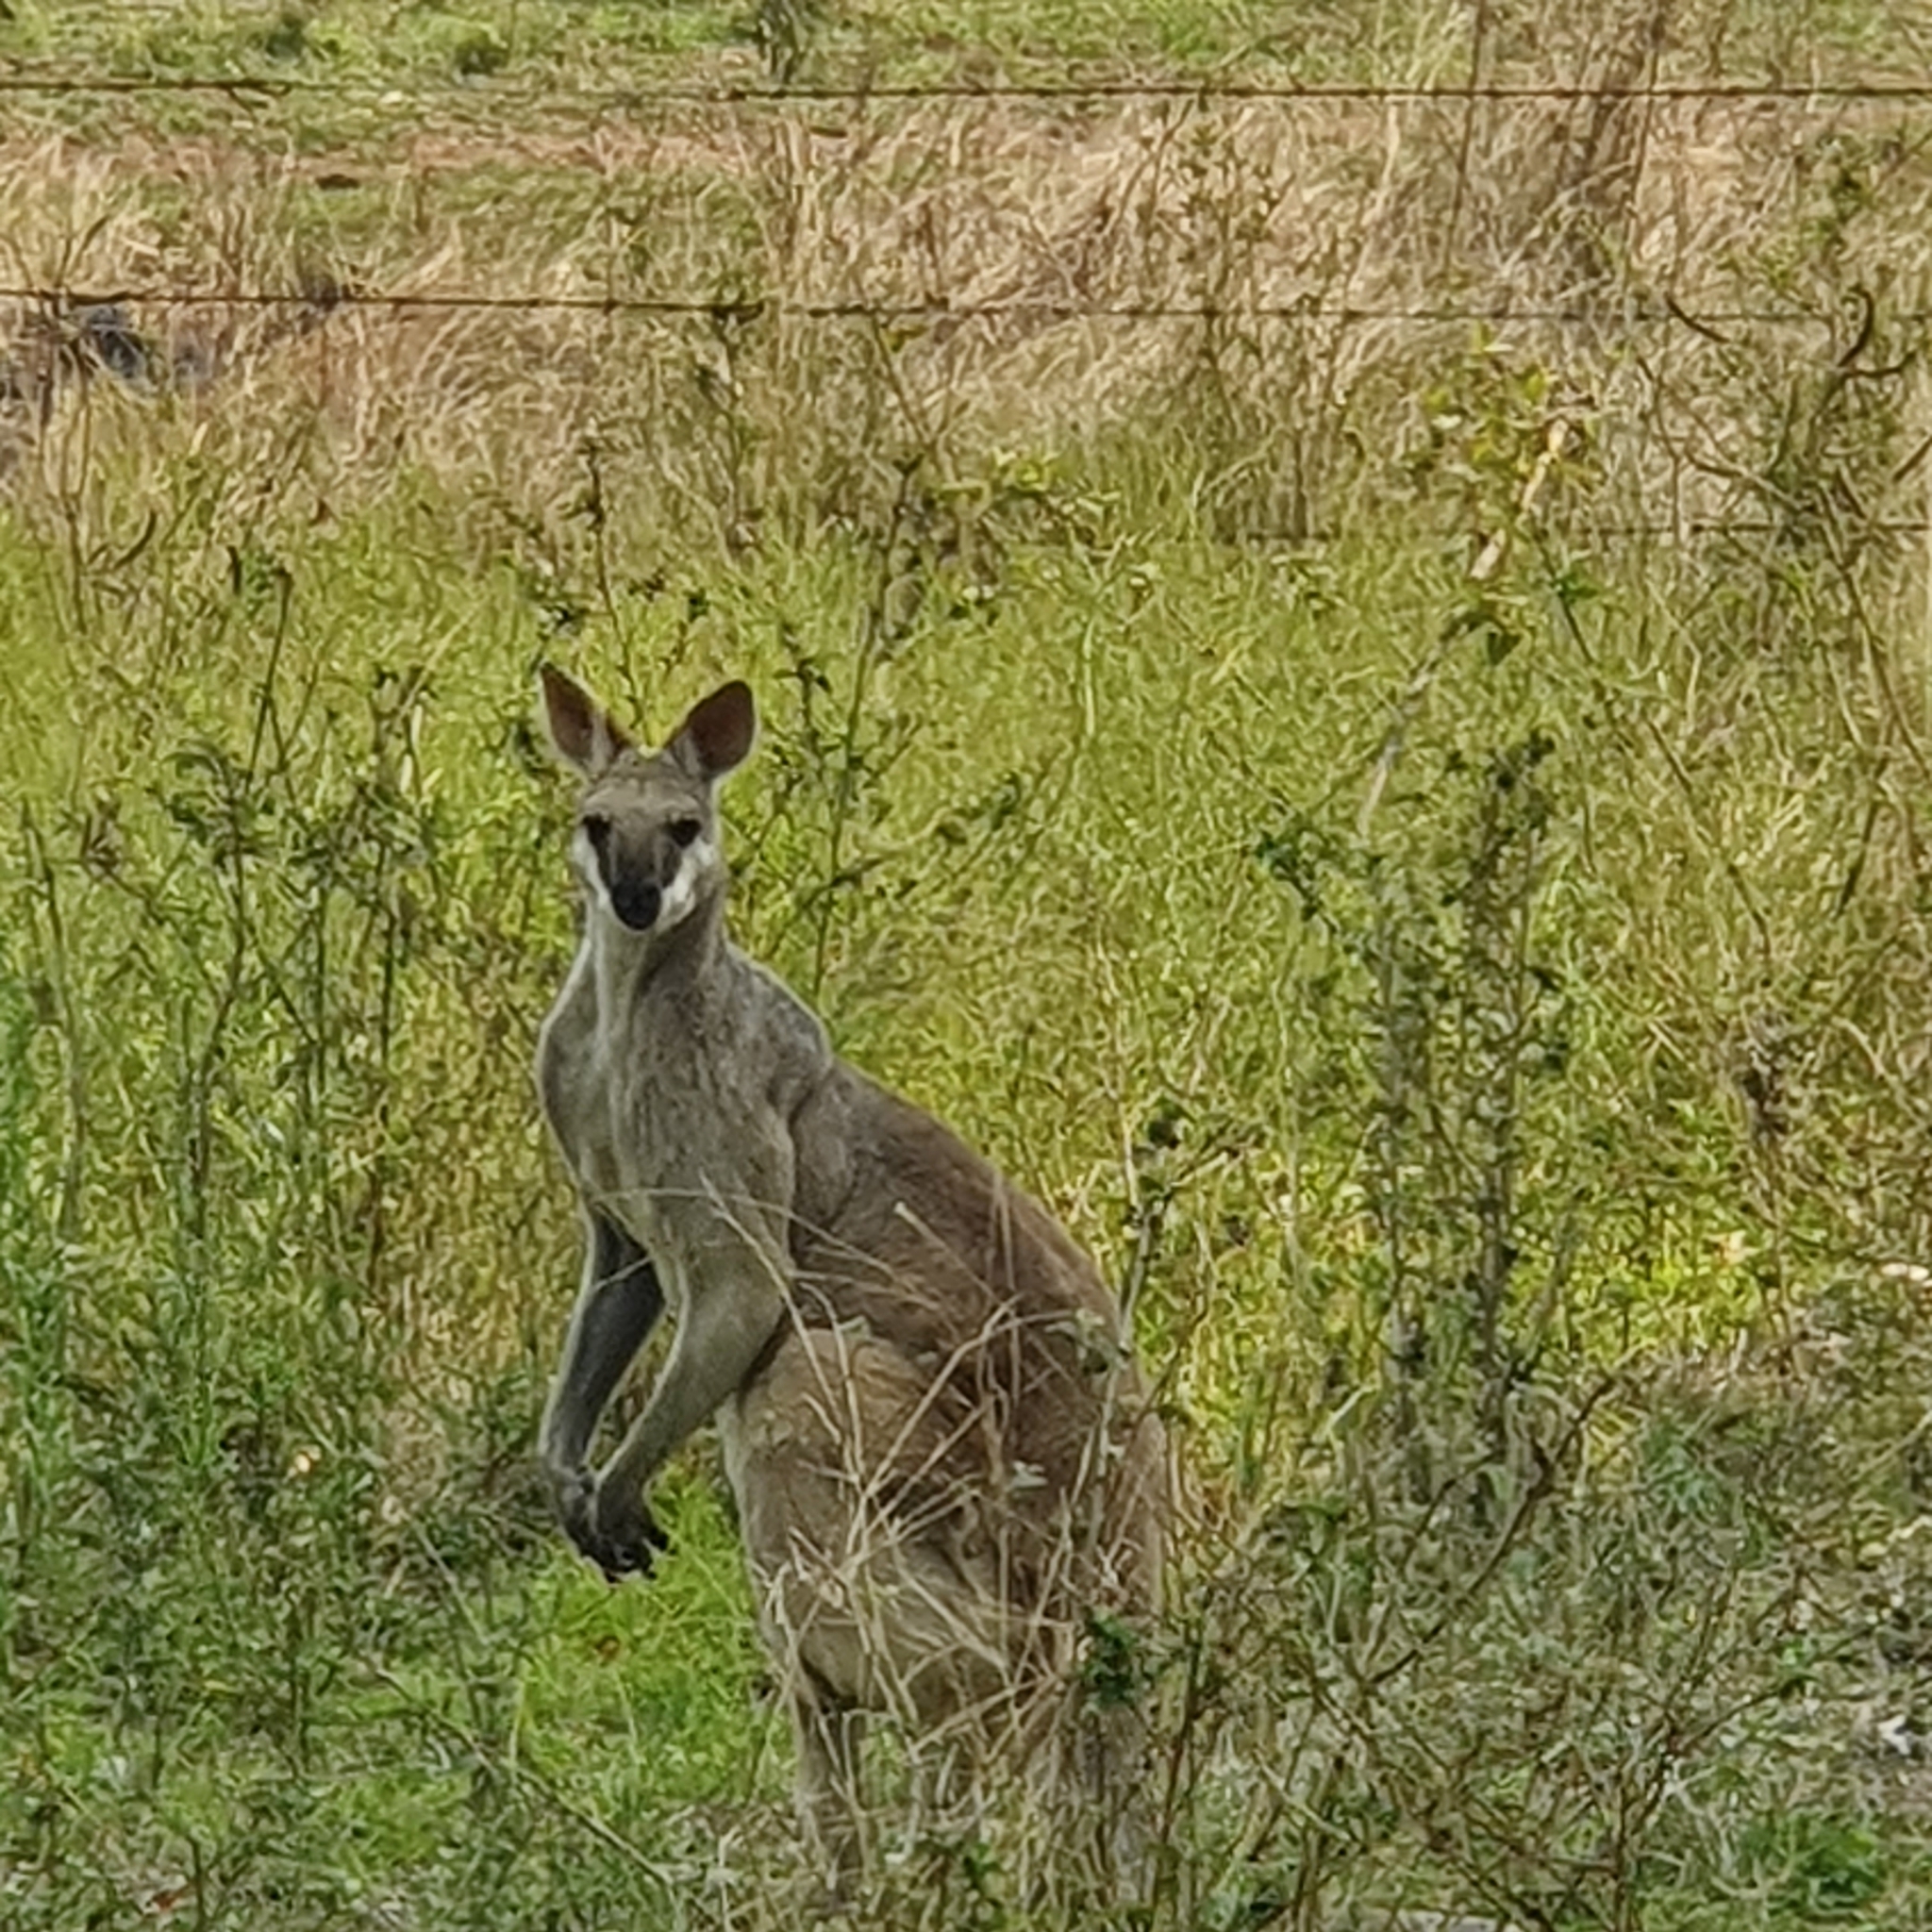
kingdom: Animalia
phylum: Chordata
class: Mammalia
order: Diprotodontia
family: Macropodidae
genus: Notamacropus
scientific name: Notamacropus parryi
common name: Whip-tailed wallaby
